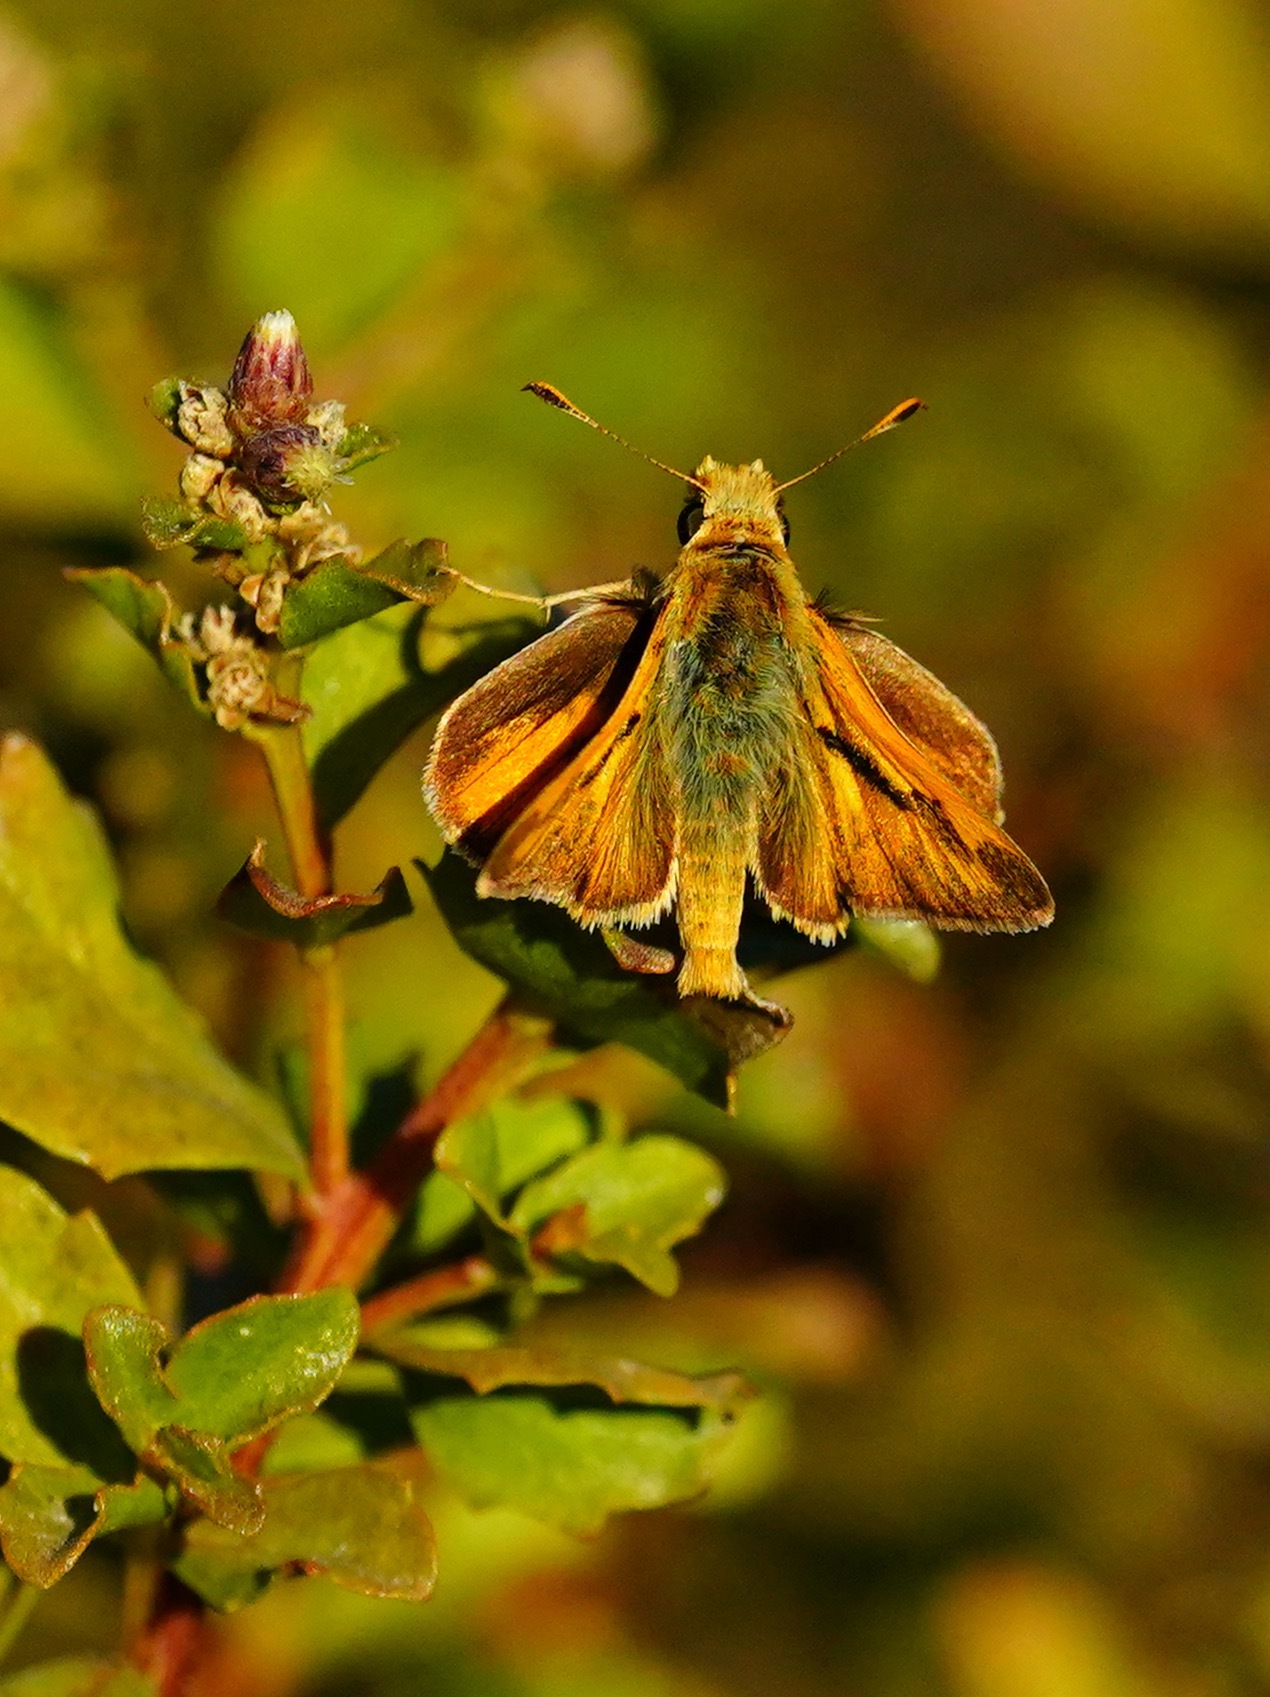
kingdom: Animalia
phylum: Arthropoda
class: Insecta
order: Lepidoptera
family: Hesperiidae
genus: Ochlodes
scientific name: Ochlodes sylvanoides
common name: Woodland skipper
